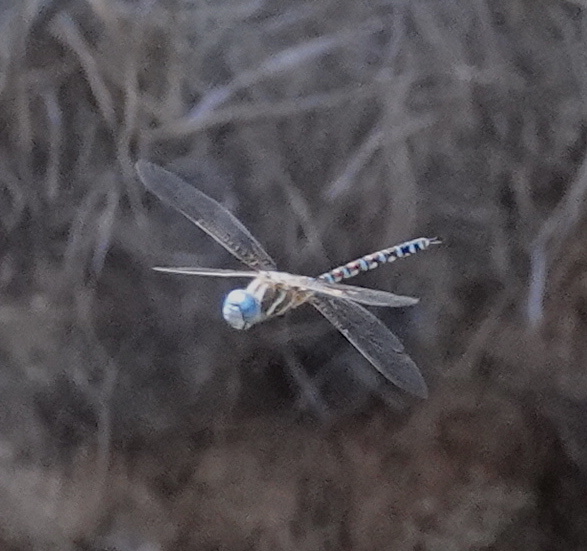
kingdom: Animalia
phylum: Arthropoda
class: Insecta
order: Odonata
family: Aeshnidae
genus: Rhionaeschna
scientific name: Rhionaeschna multicolor
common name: Blue-eyed darner
